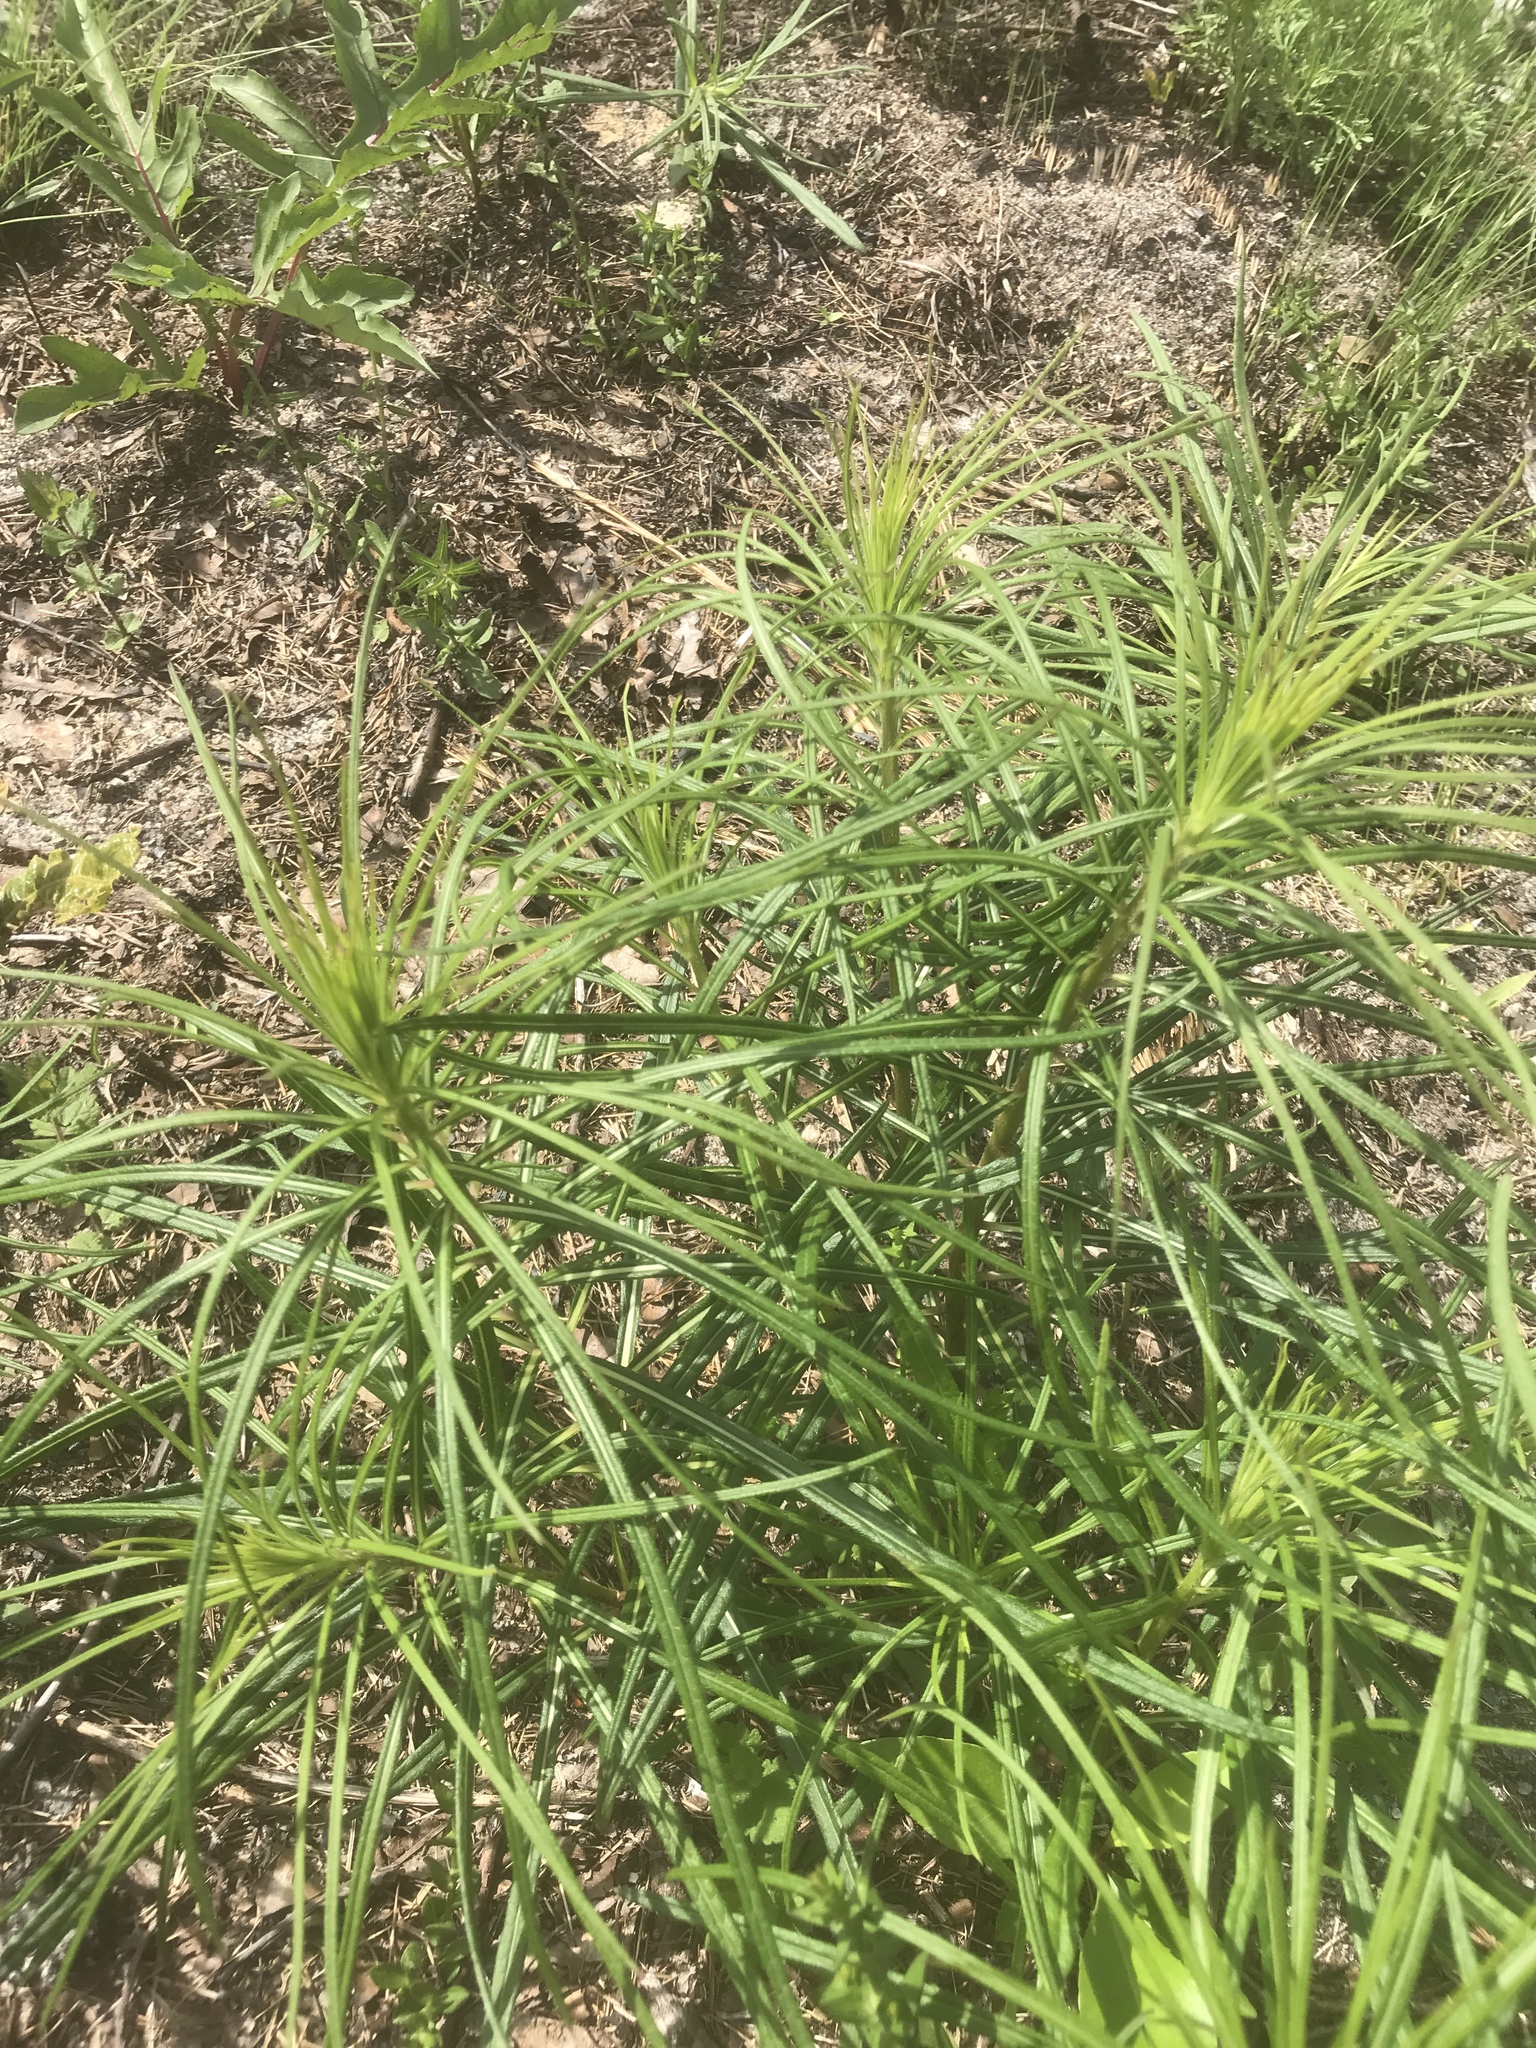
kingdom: Plantae
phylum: Tracheophyta
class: Magnoliopsida
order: Asterales
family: Asteraceae
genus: Vernonia
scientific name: Vernonia angustifolia
